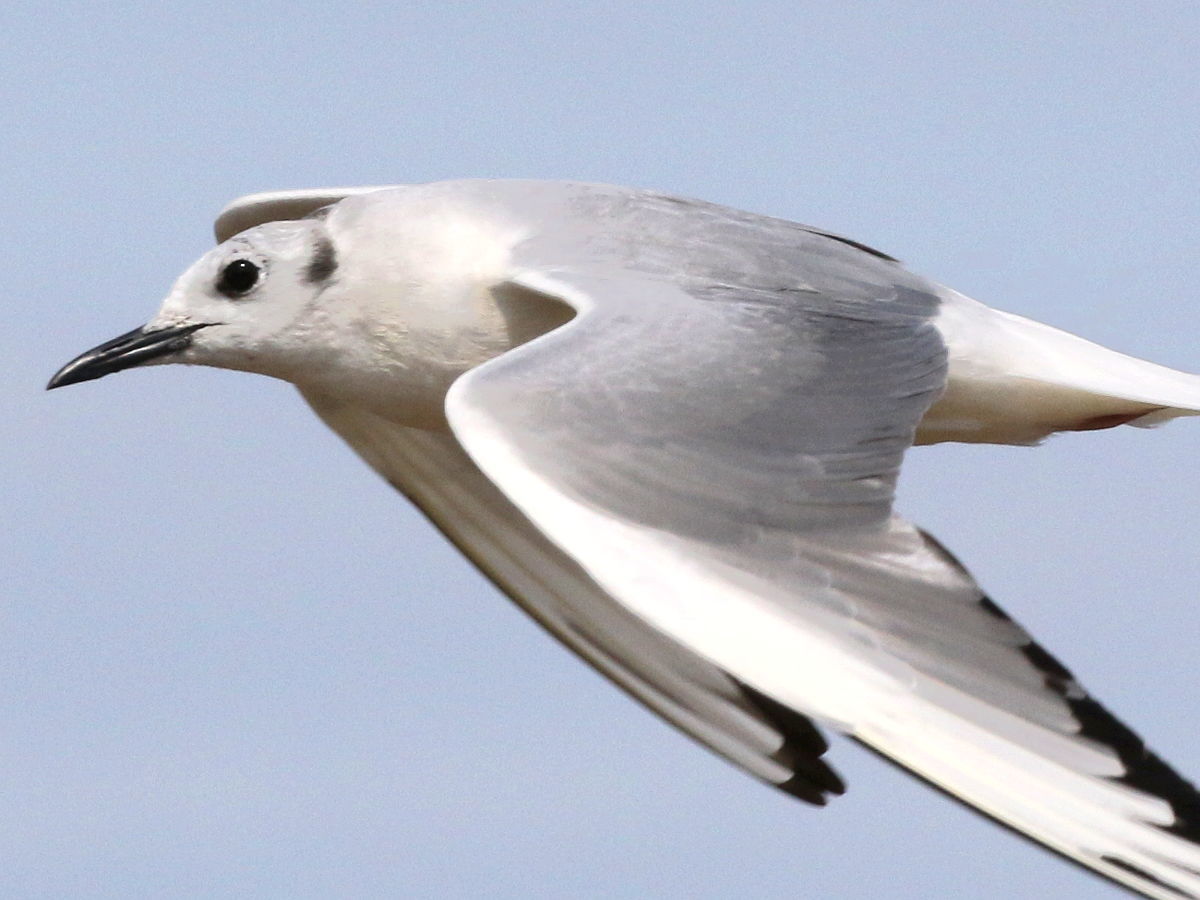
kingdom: Animalia
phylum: Chordata
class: Aves
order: Charadriiformes
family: Laridae
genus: Chroicocephalus
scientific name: Chroicocephalus philadelphia
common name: Bonaparte's gull
